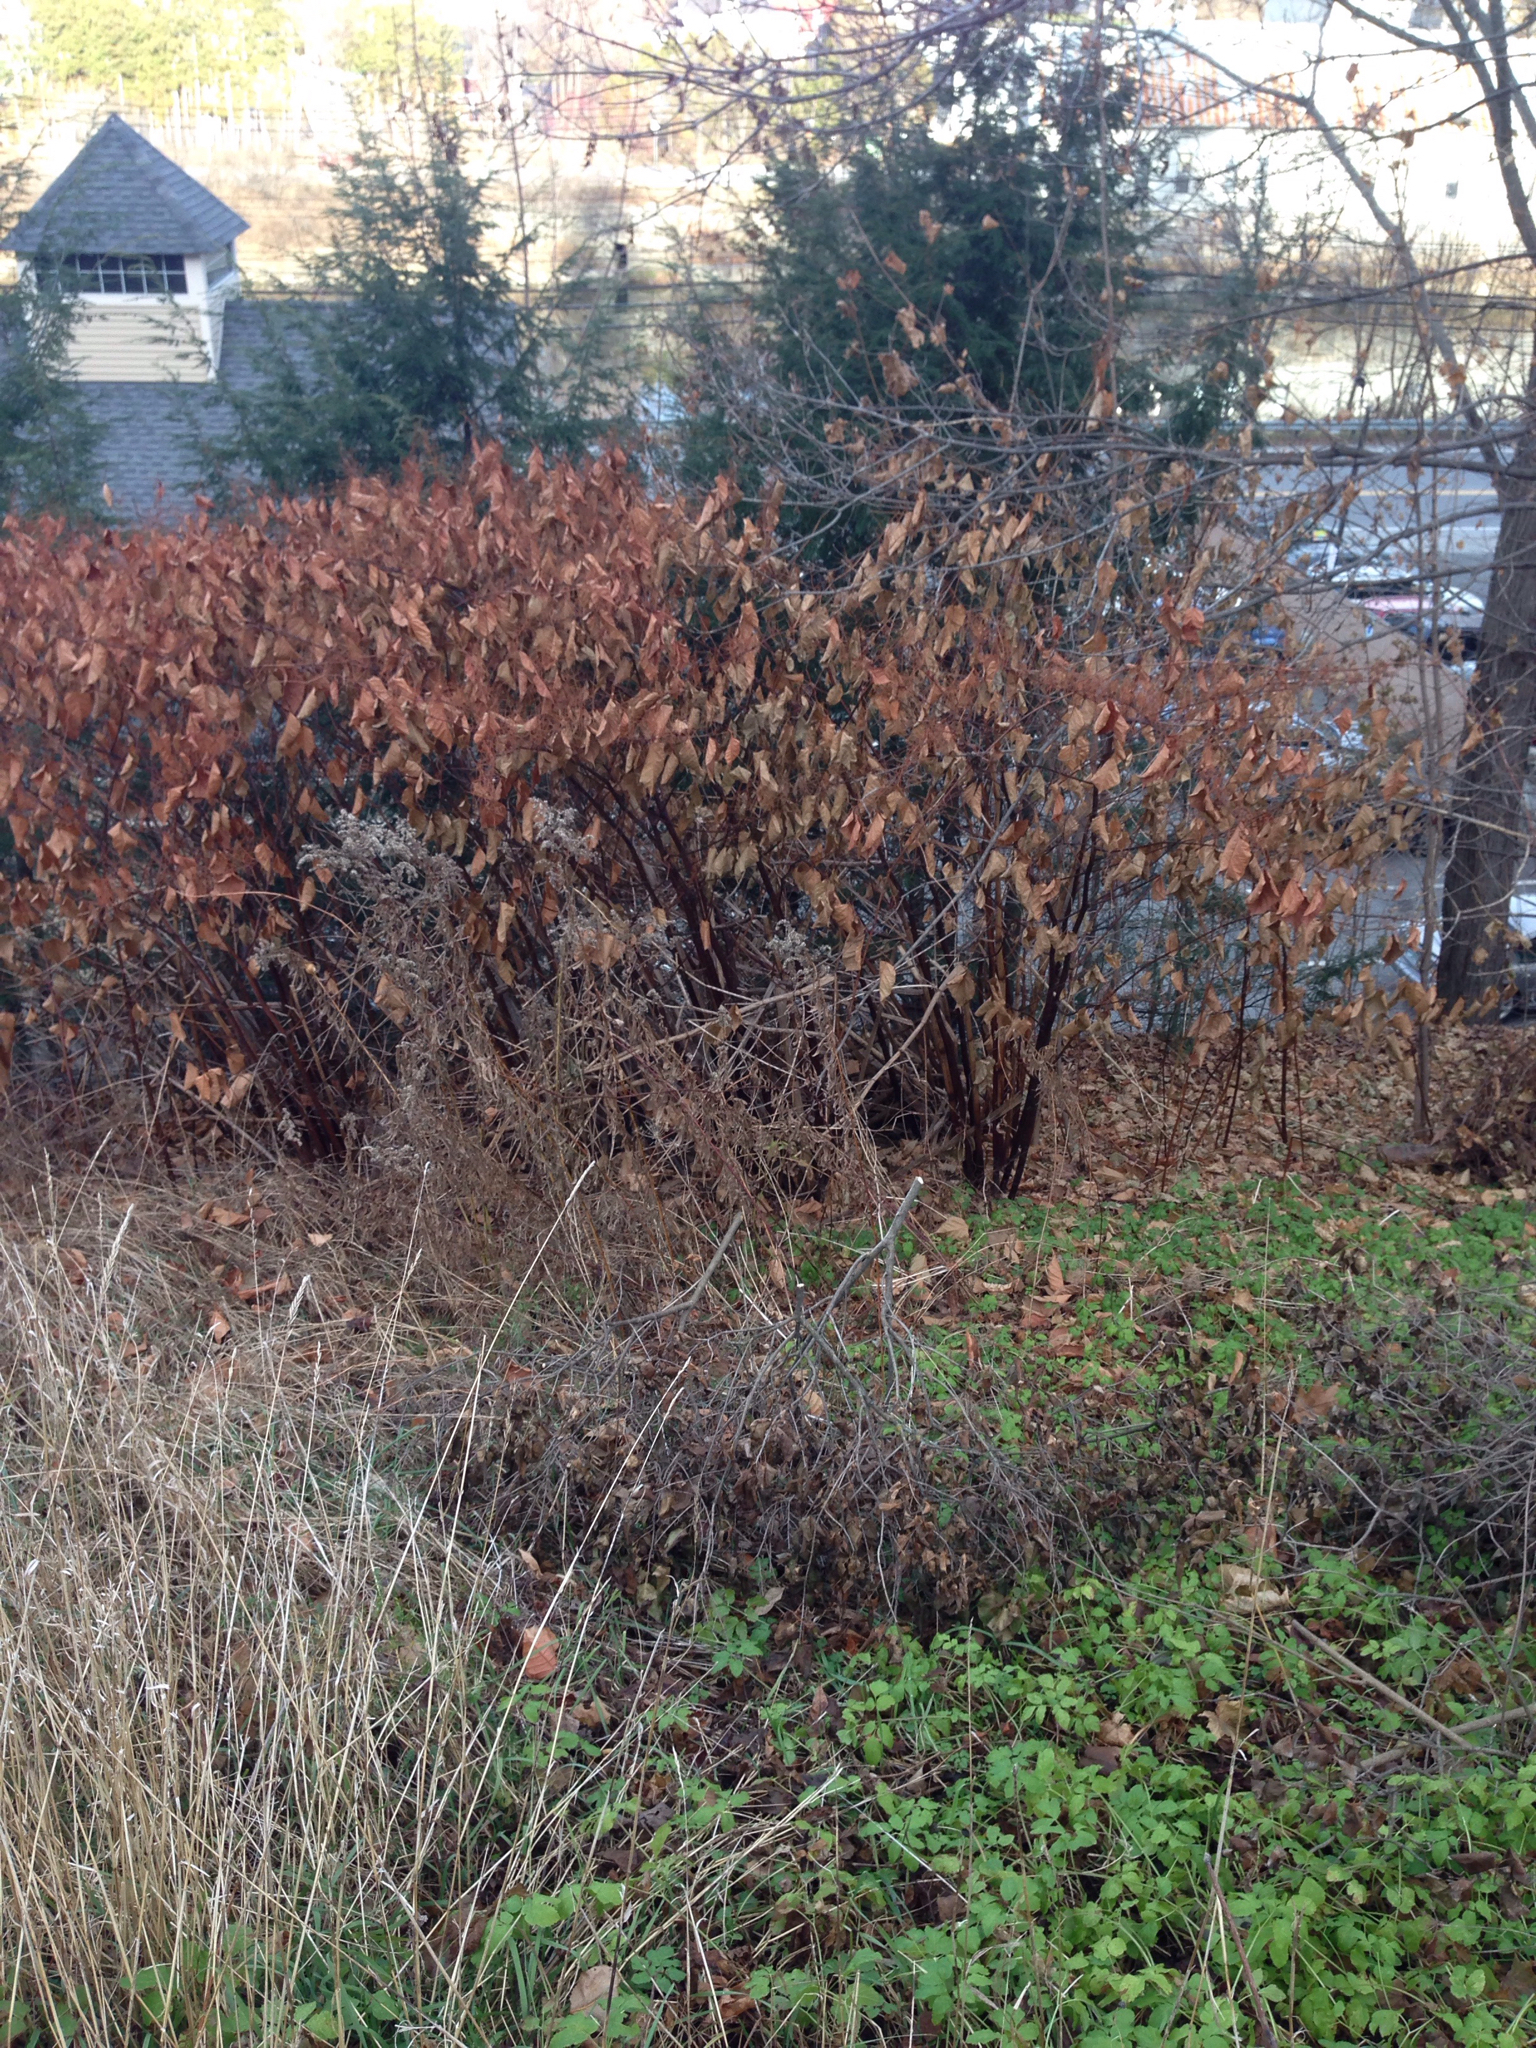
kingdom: Plantae
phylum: Tracheophyta
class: Magnoliopsida
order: Caryophyllales
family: Polygonaceae
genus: Reynoutria
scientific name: Reynoutria japonica
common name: Japanese knotweed
